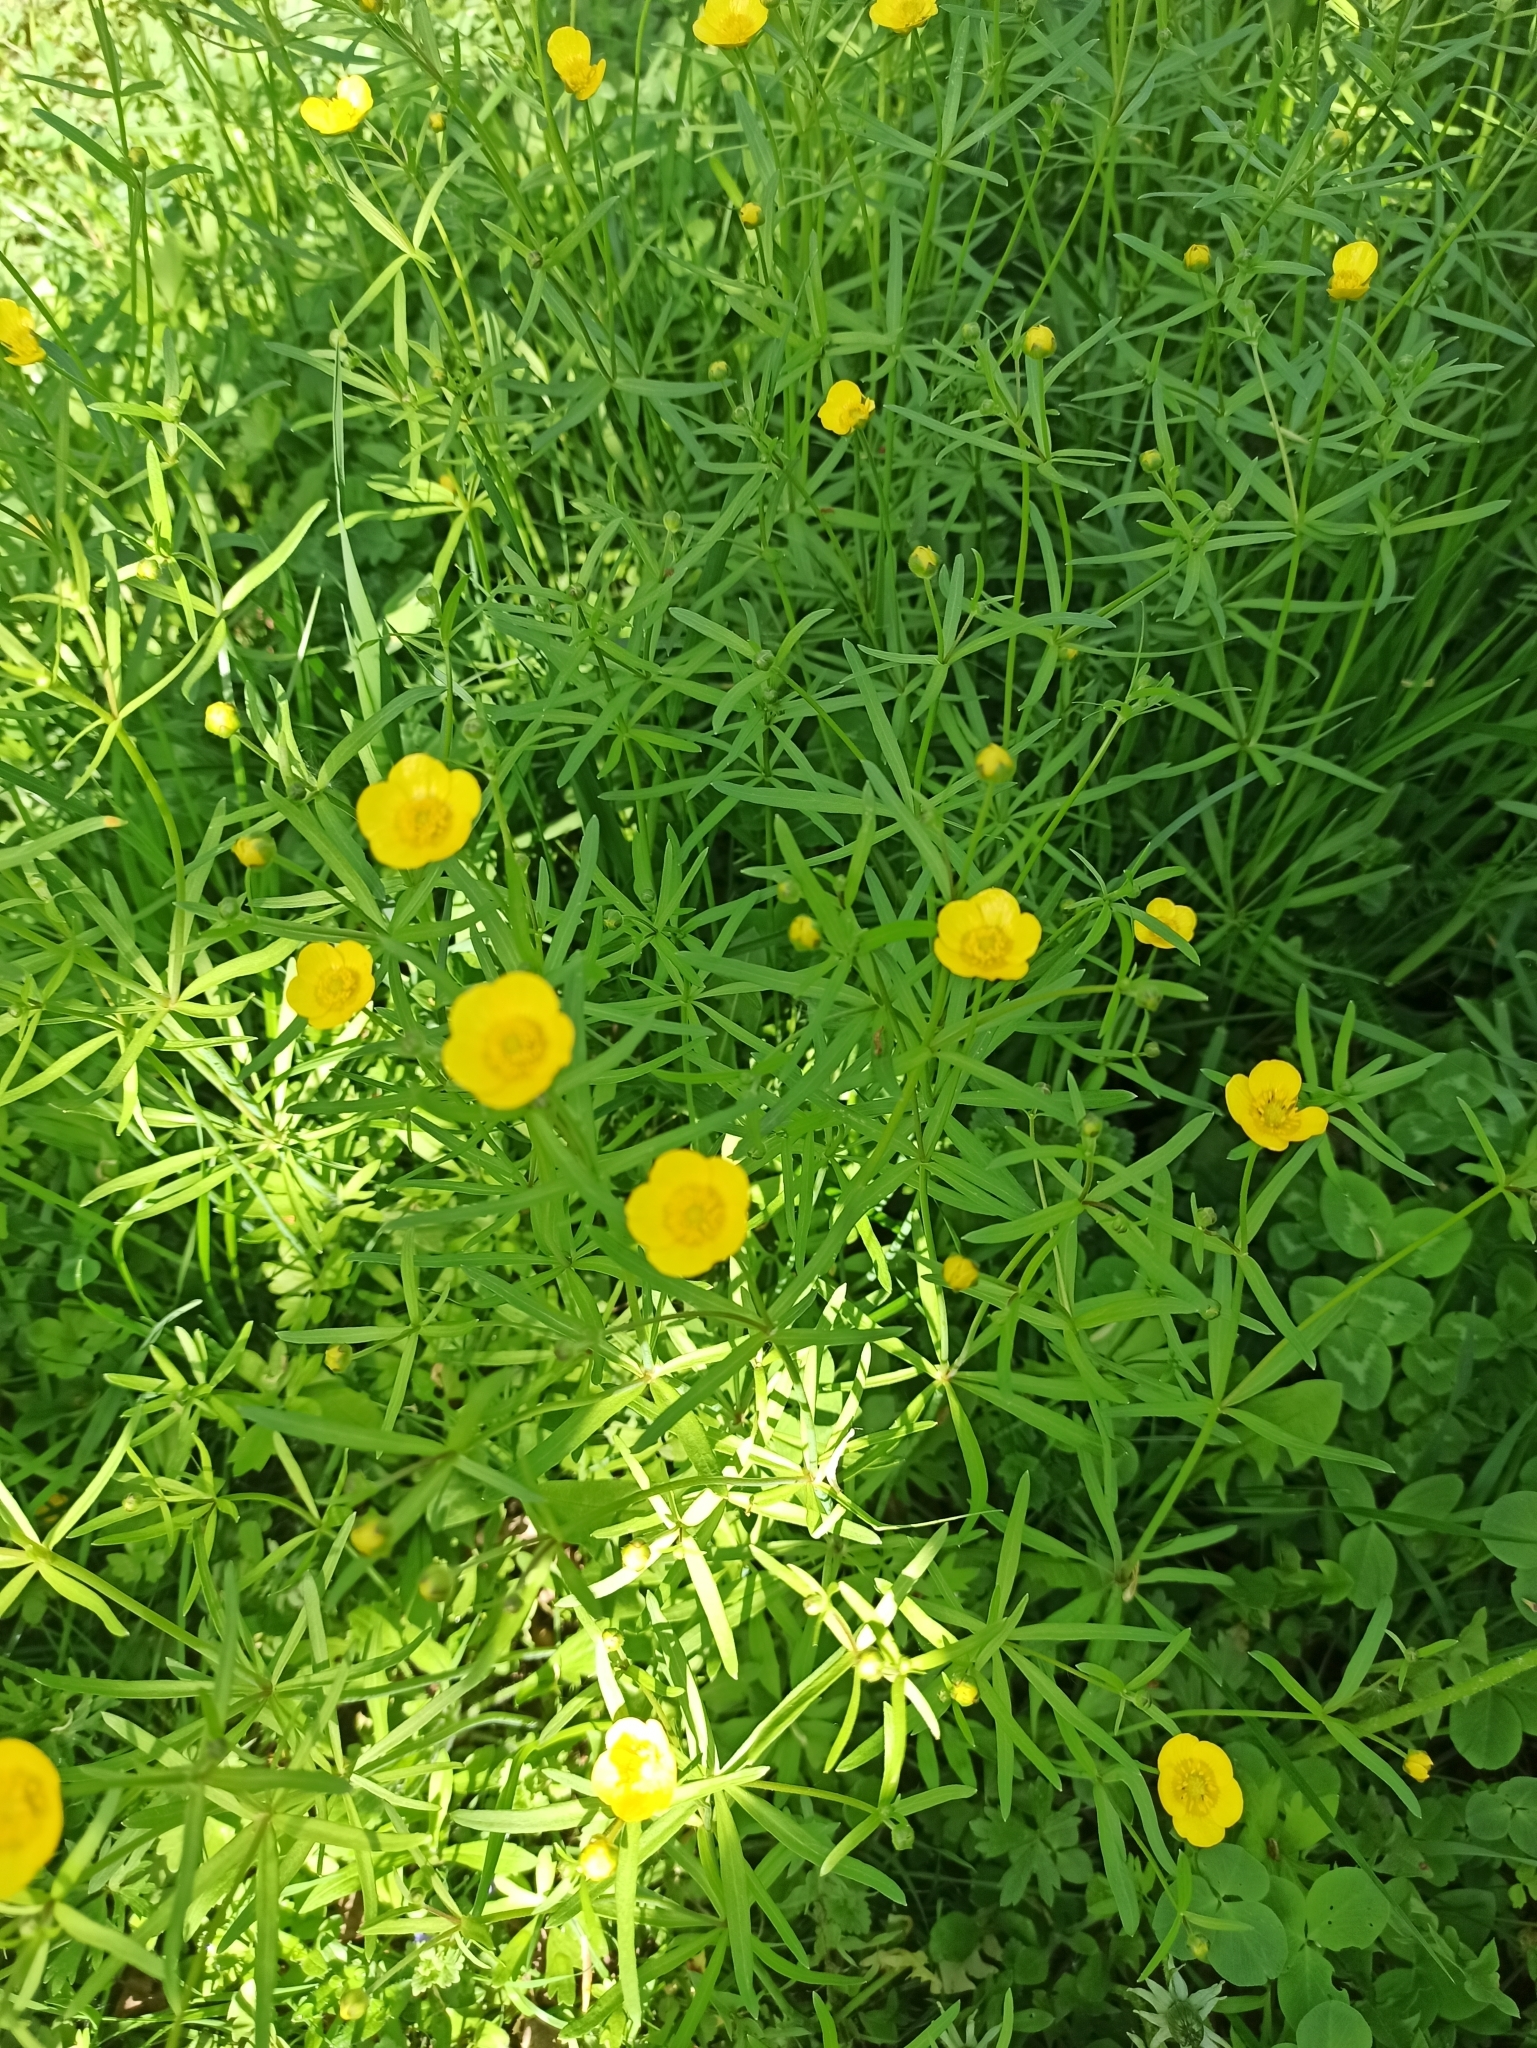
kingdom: Plantae
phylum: Tracheophyta
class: Magnoliopsida
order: Ranunculales
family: Ranunculaceae
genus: Ranunculus
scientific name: Ranunculus auricomus
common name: Goldilocks buttercup
